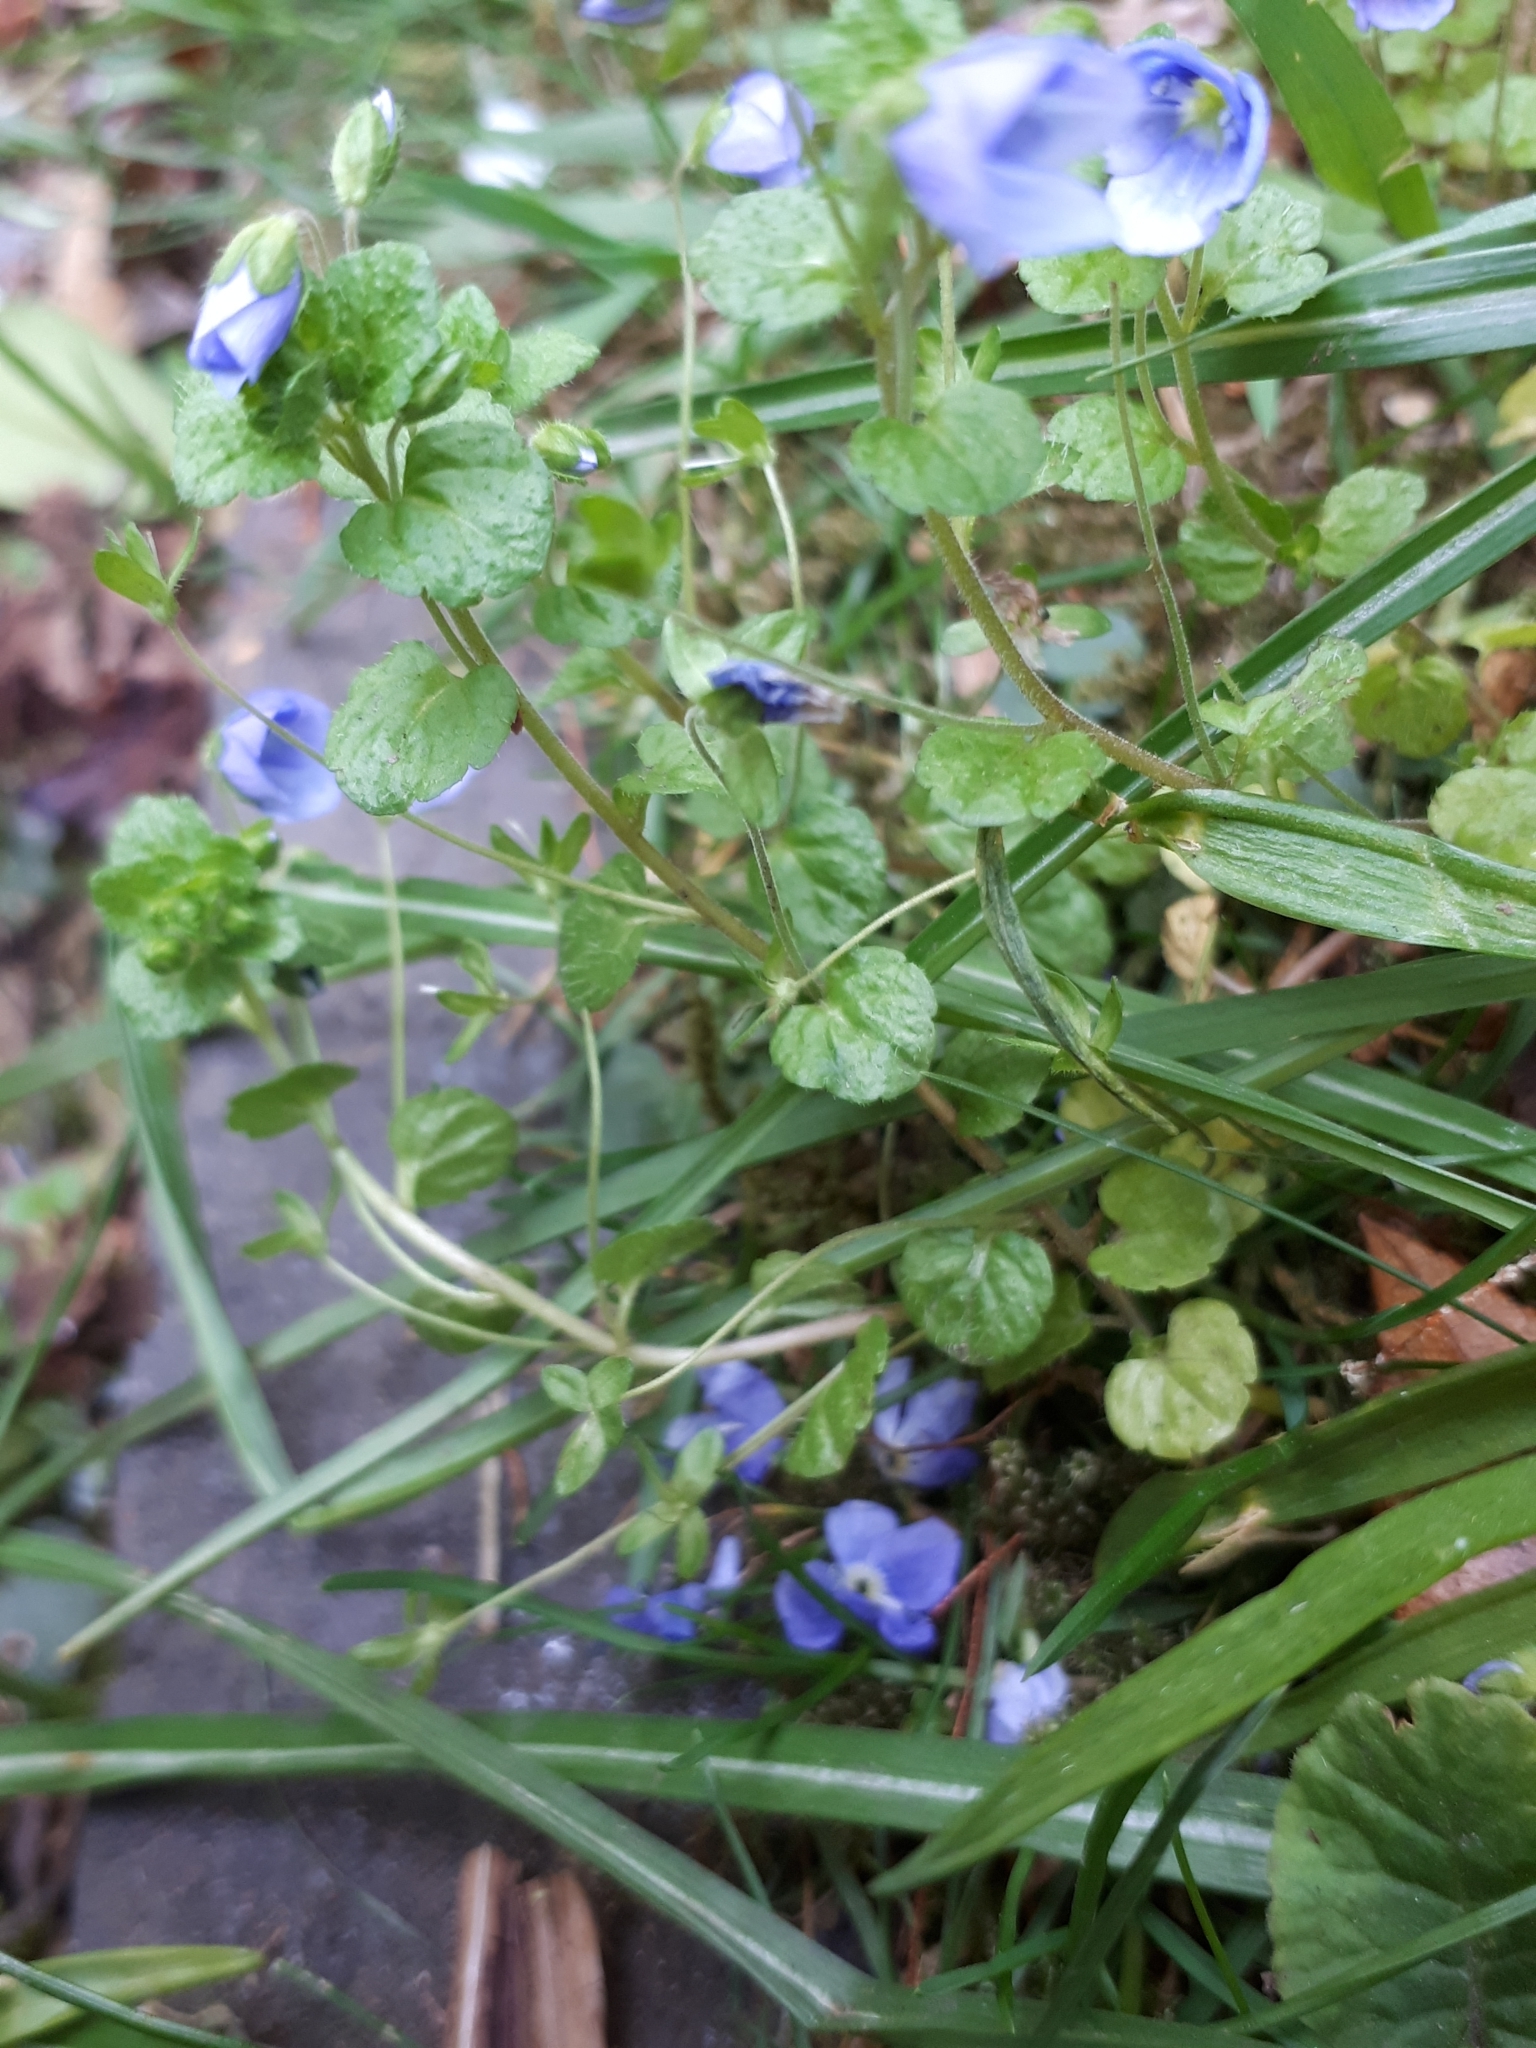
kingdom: Plantae
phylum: Tracheophyta
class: Magnoliopsida
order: Lamiales
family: Plantaginaceae
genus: Veronica
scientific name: Veronica filiformis
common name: Slender speedwell
